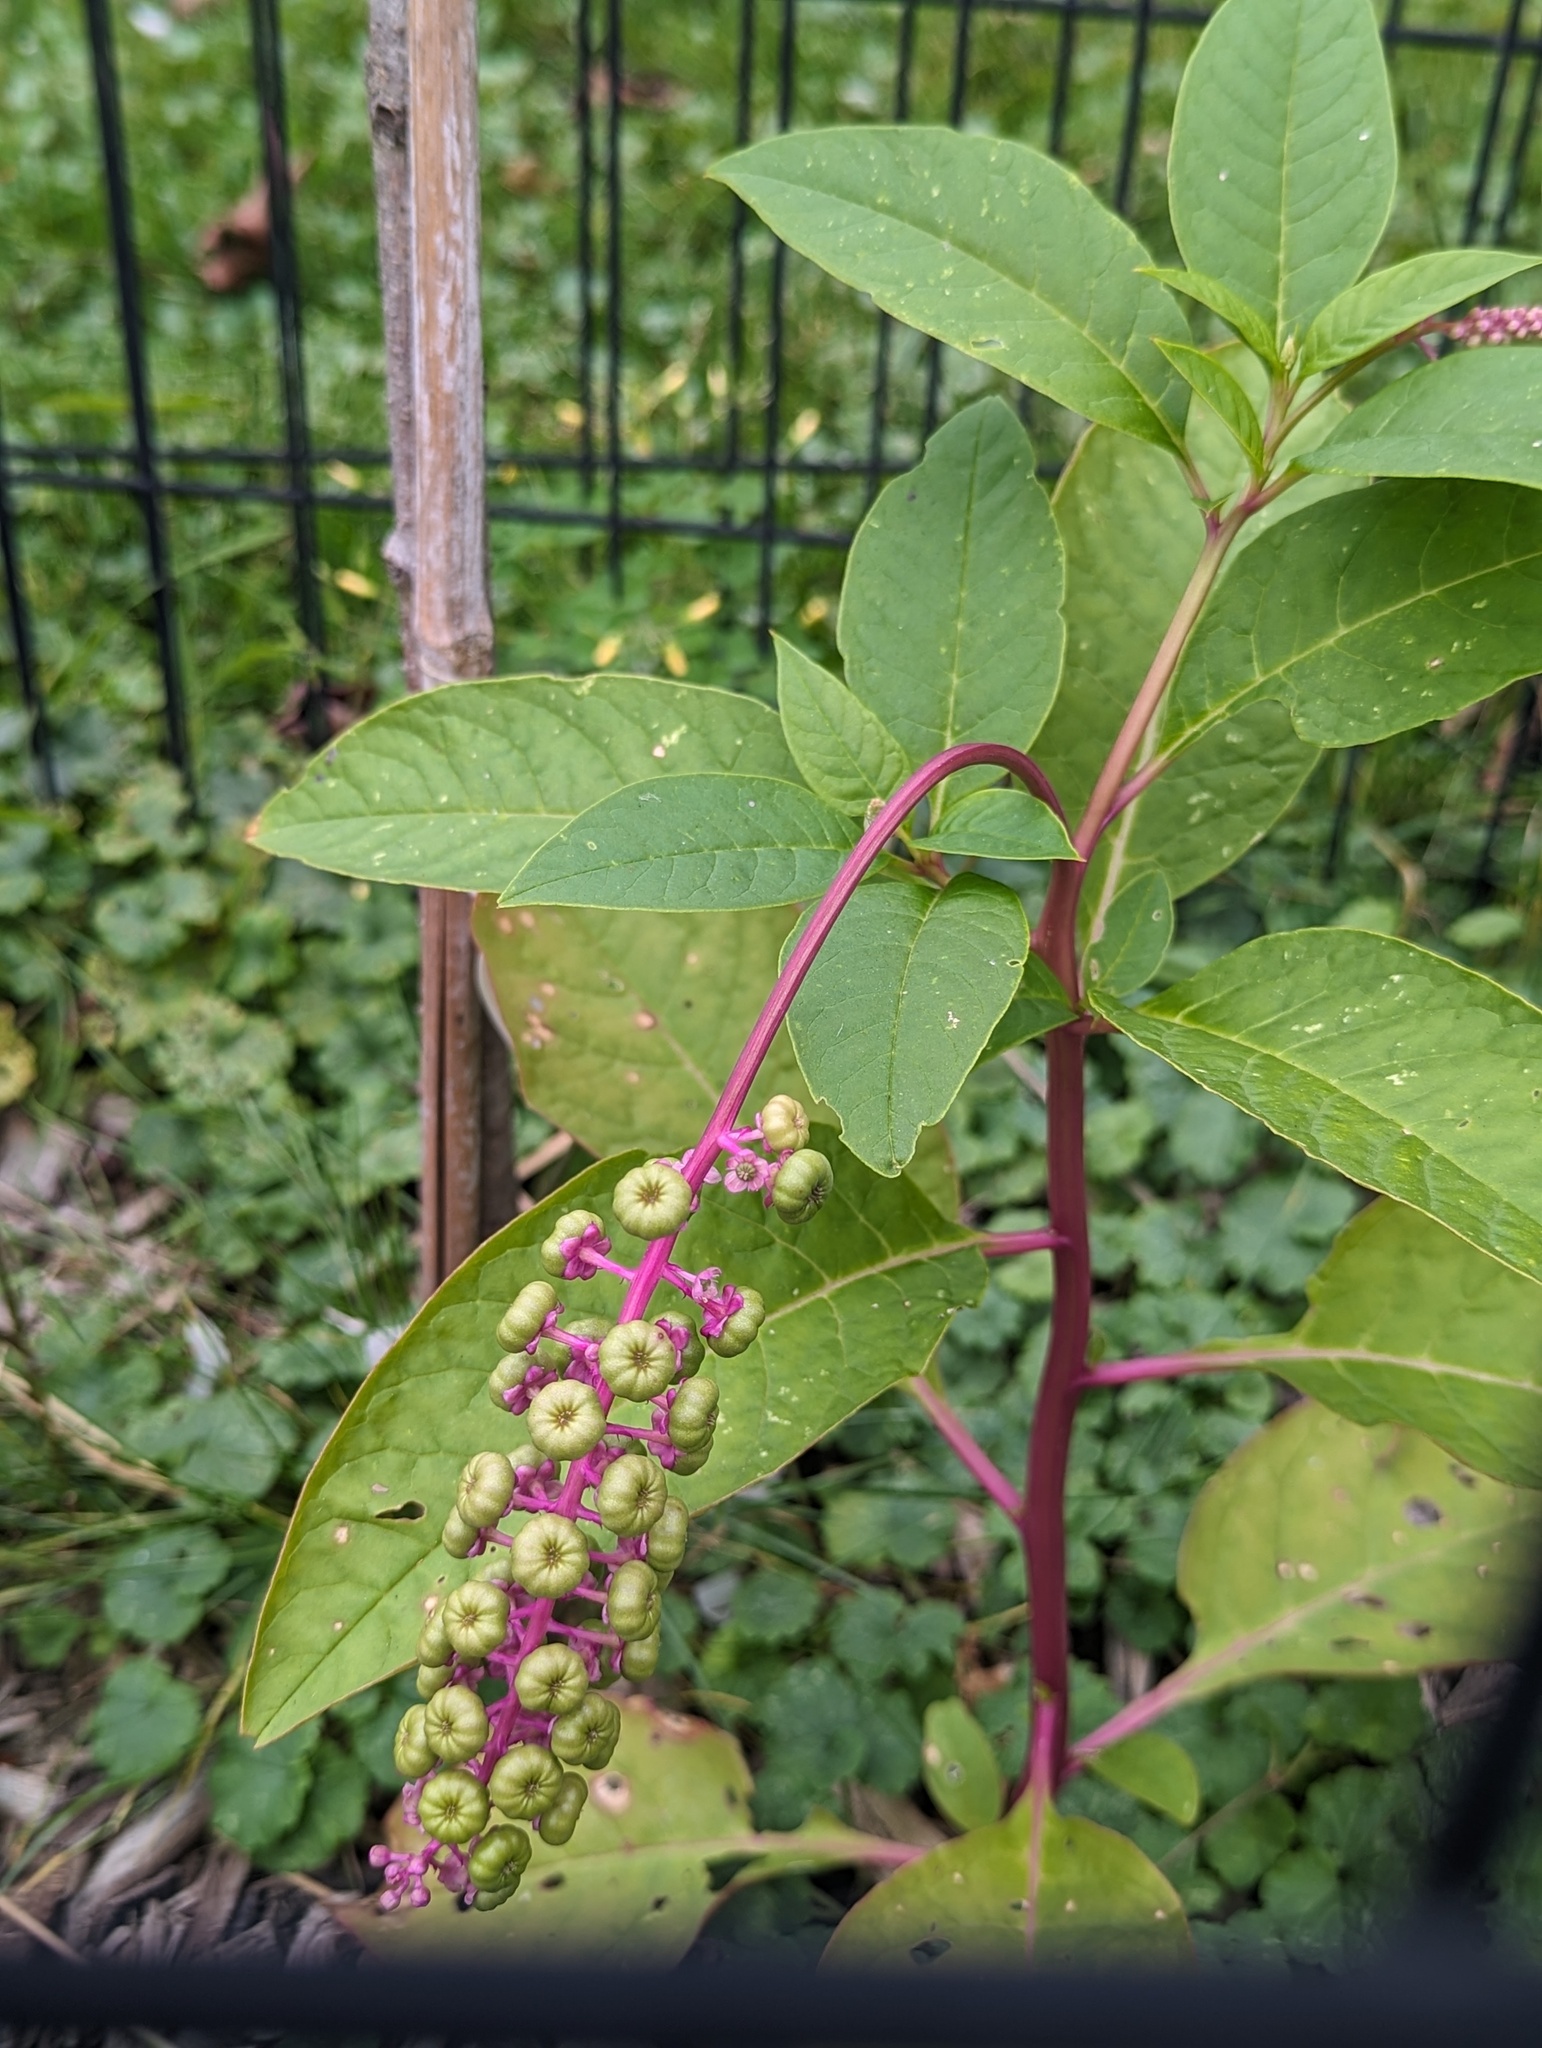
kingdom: Plantae
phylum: Tracheophyta
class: Magnoliopsida
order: Caryophyllales
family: Phytolaccaceae
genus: Phytolacca
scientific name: Phytolacca americana
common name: American pokeweed
